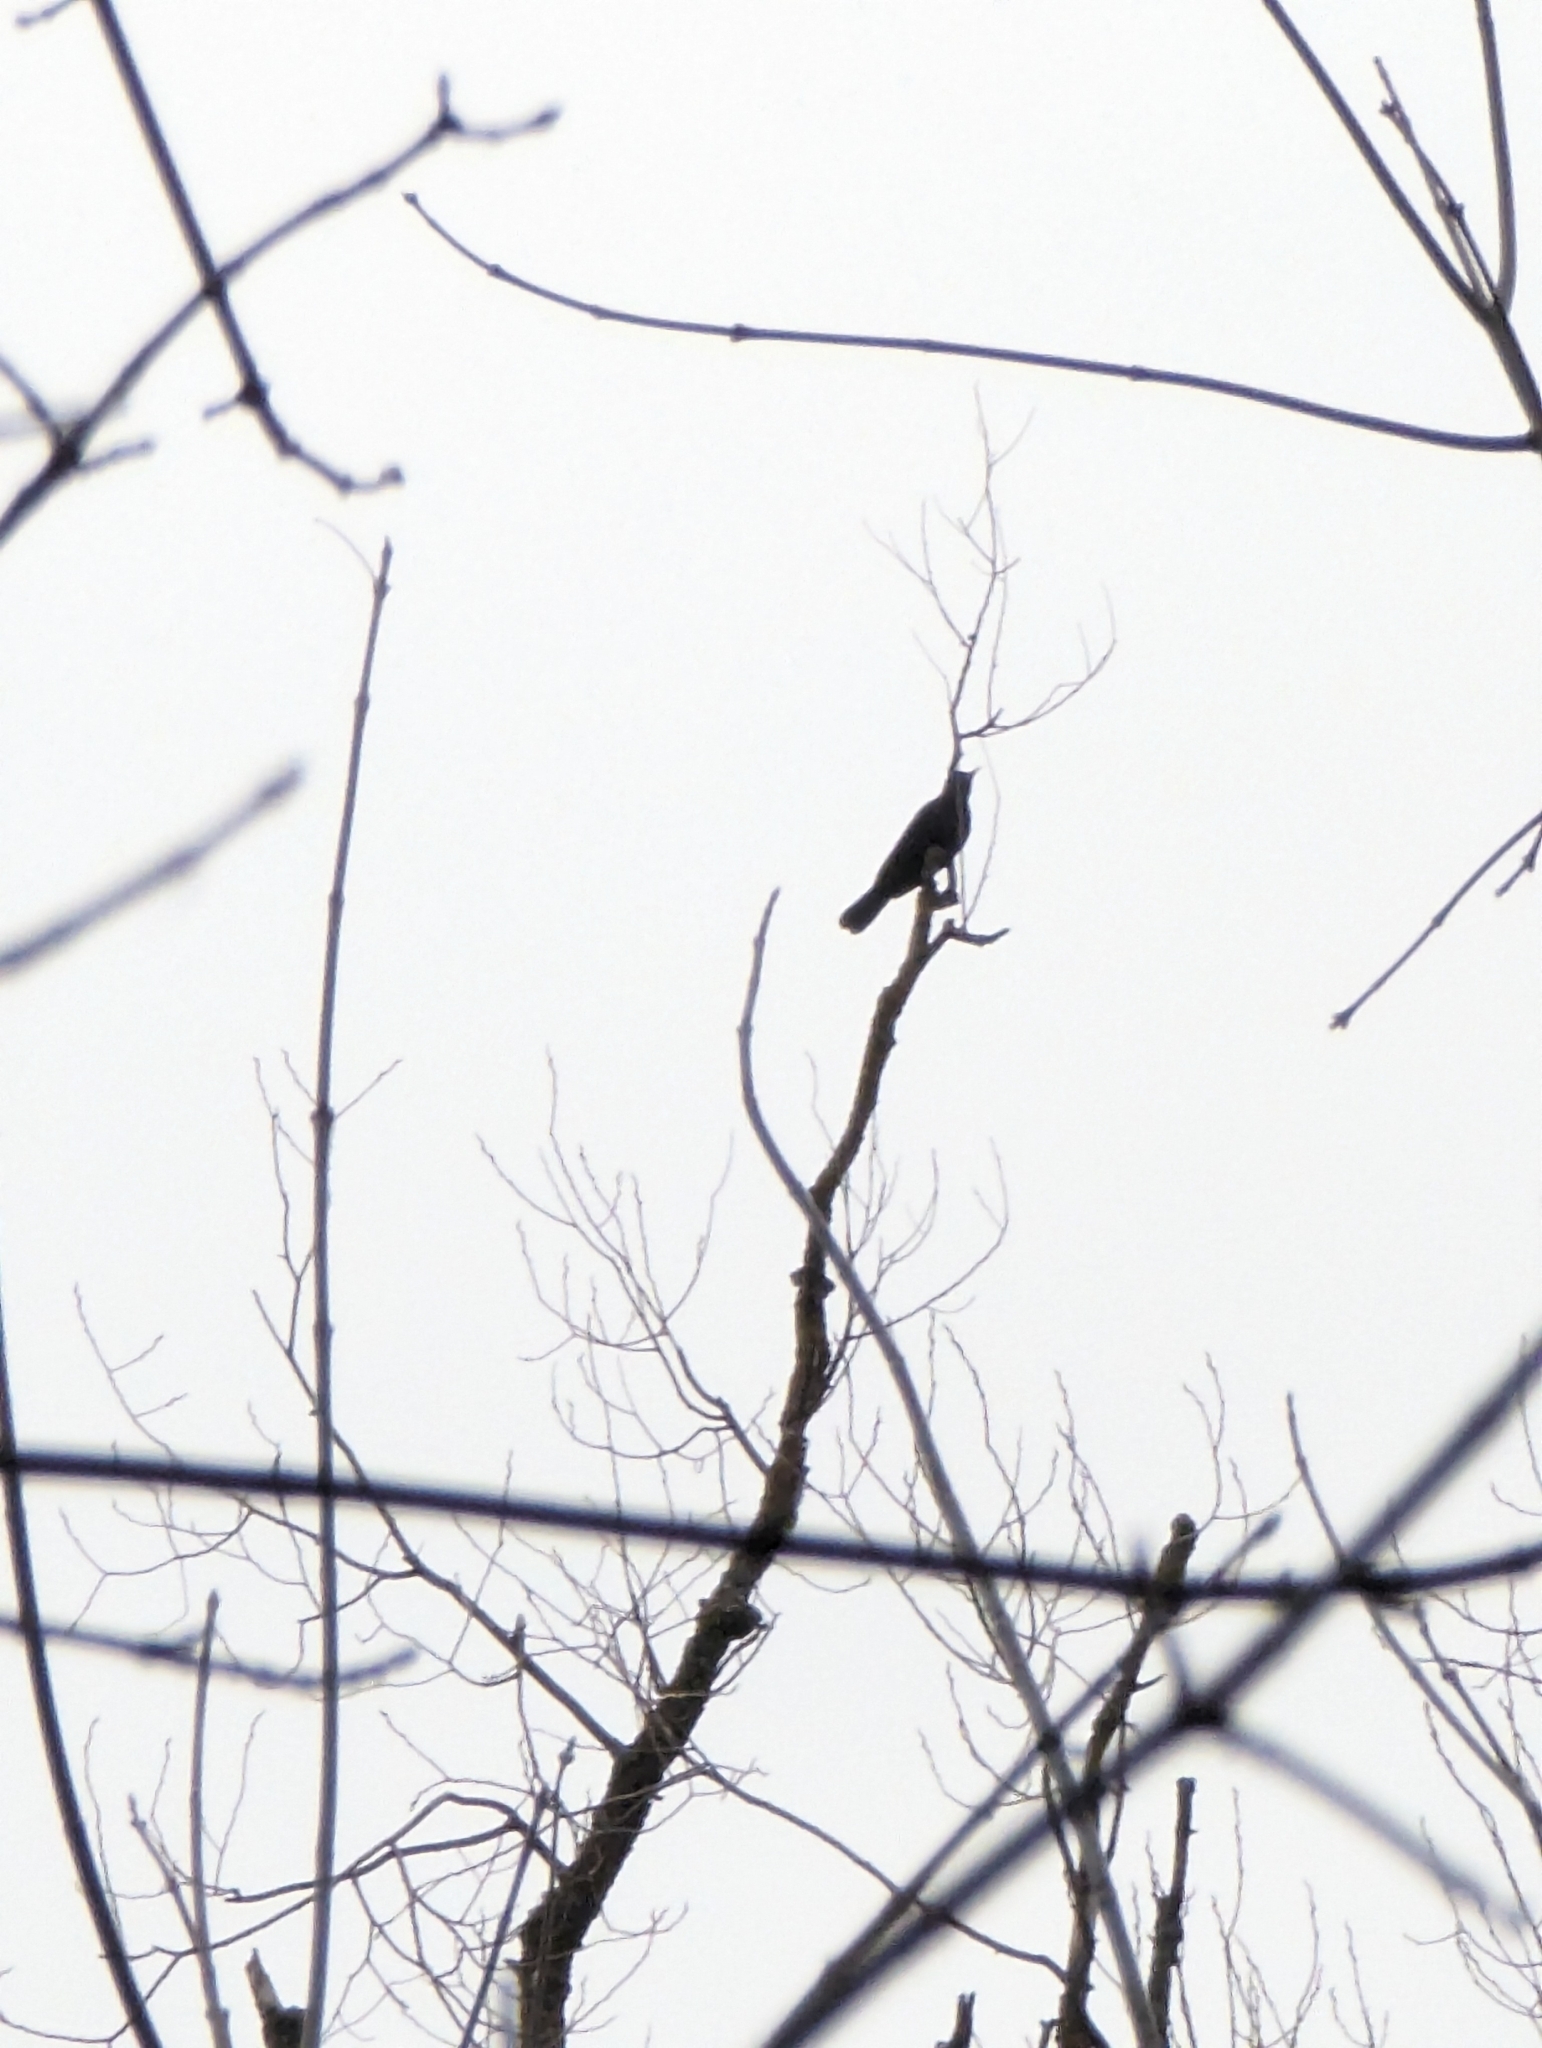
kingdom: Animalia
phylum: Chordata
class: Aves
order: Passeriformes
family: Turdidae
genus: Turdus
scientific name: Turdus merula
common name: Common blackbird
